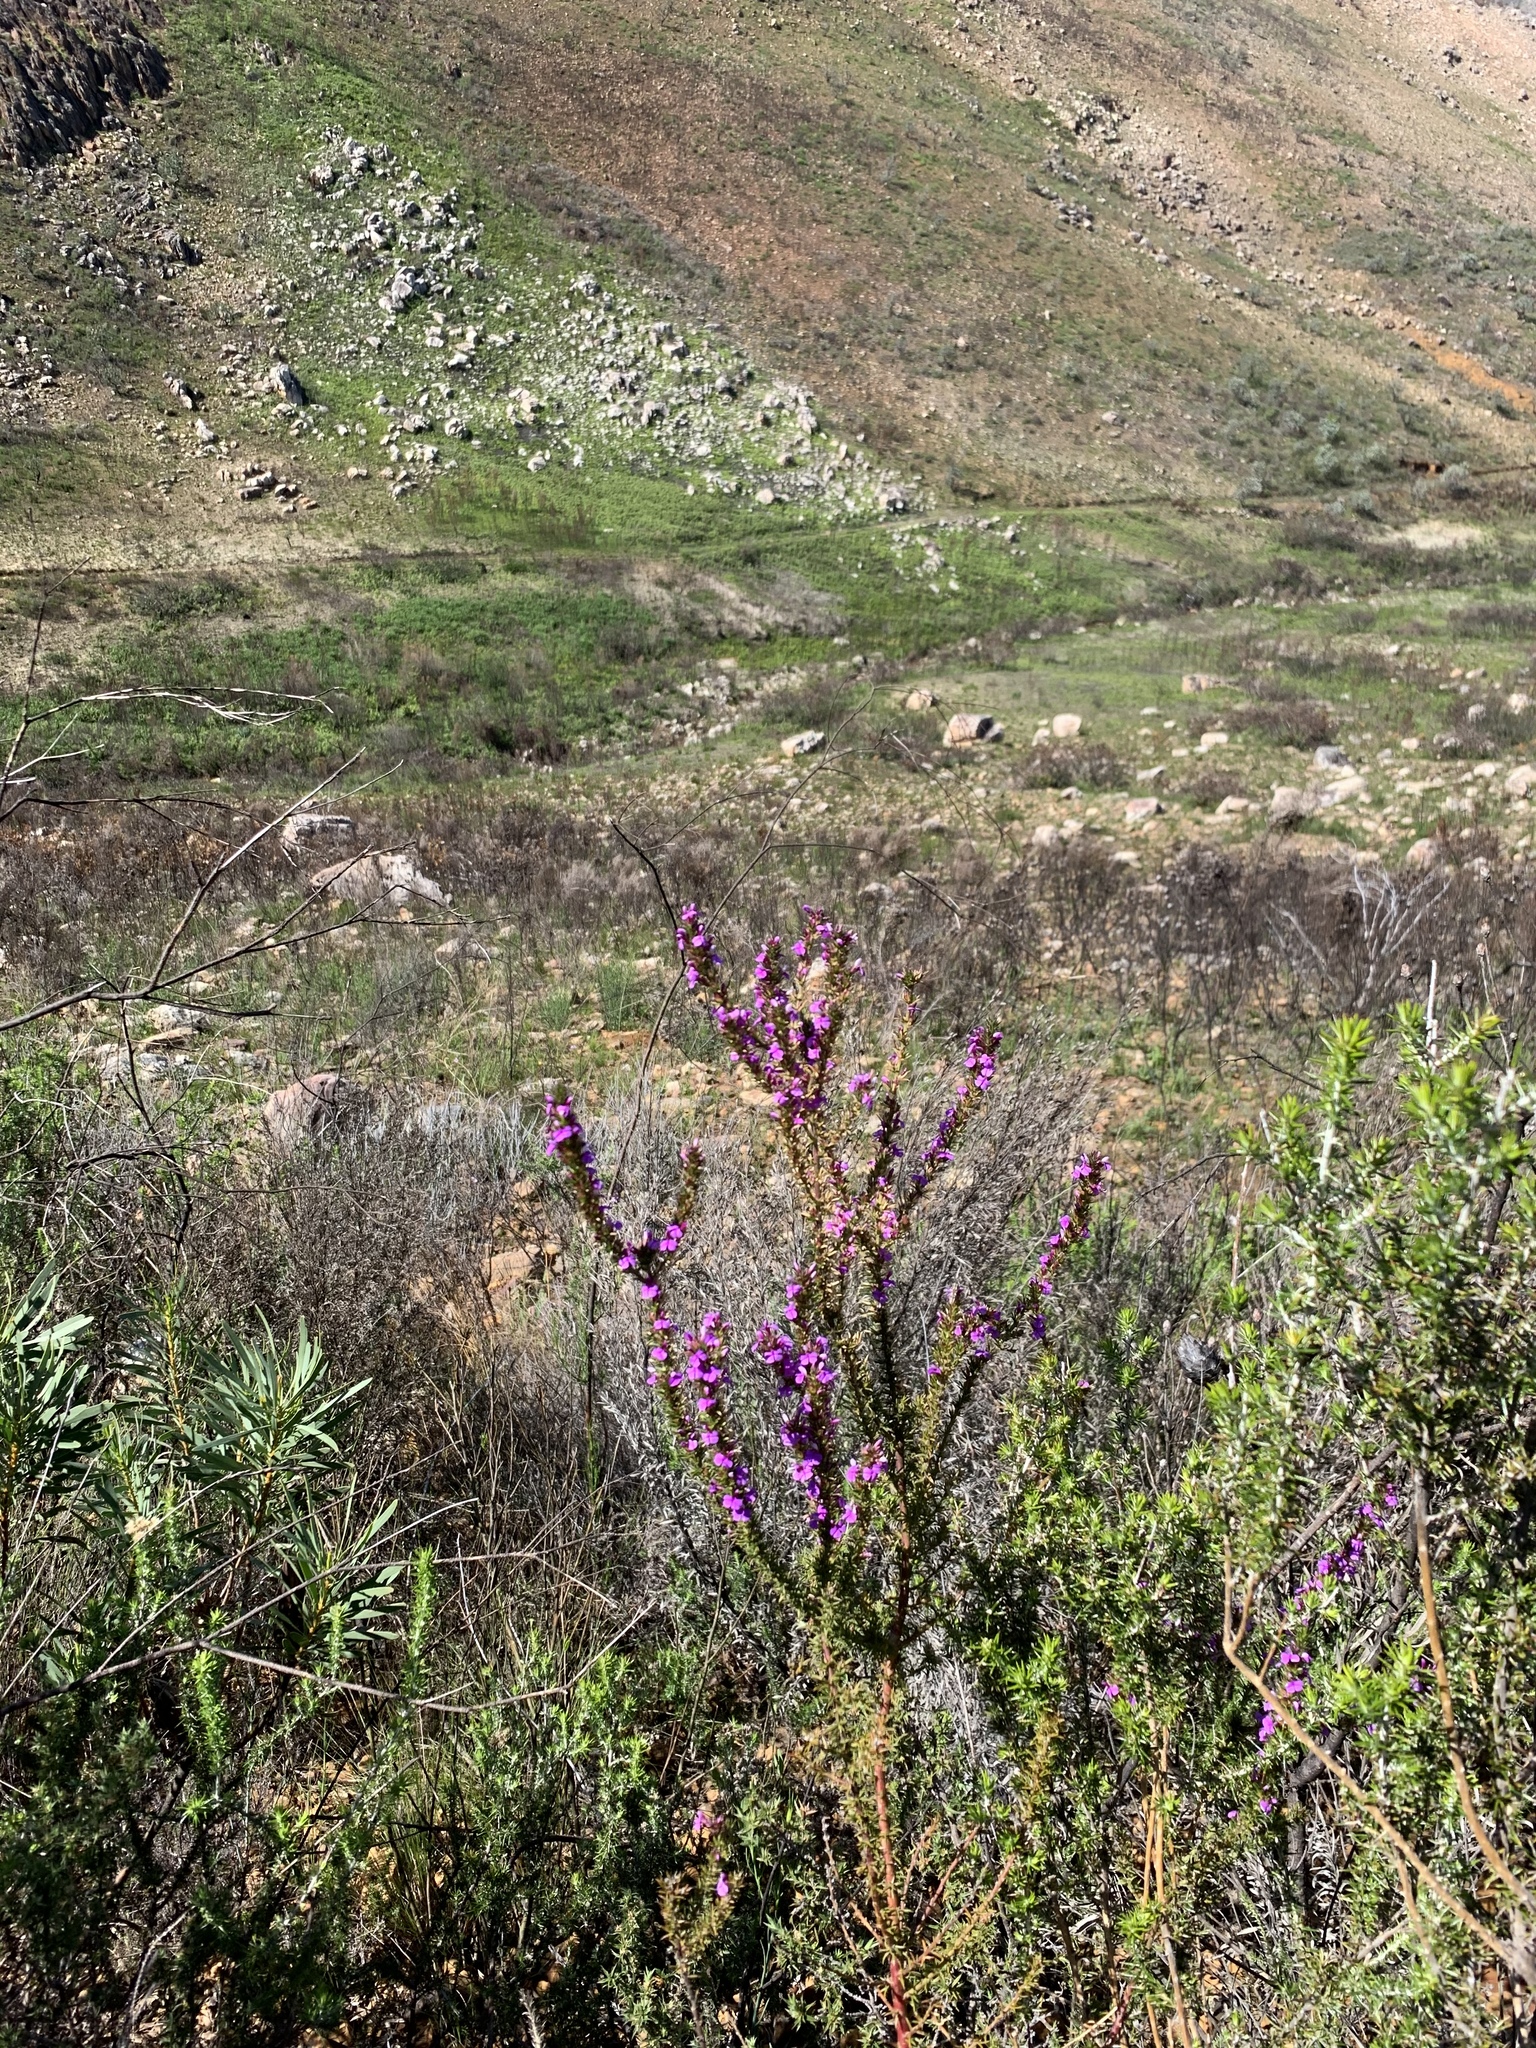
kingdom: Plantae
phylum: Tracheophyta
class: Magnoliopsida
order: Fabales
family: Polygalaceae
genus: Muraltia
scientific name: Muraltia heisteria
